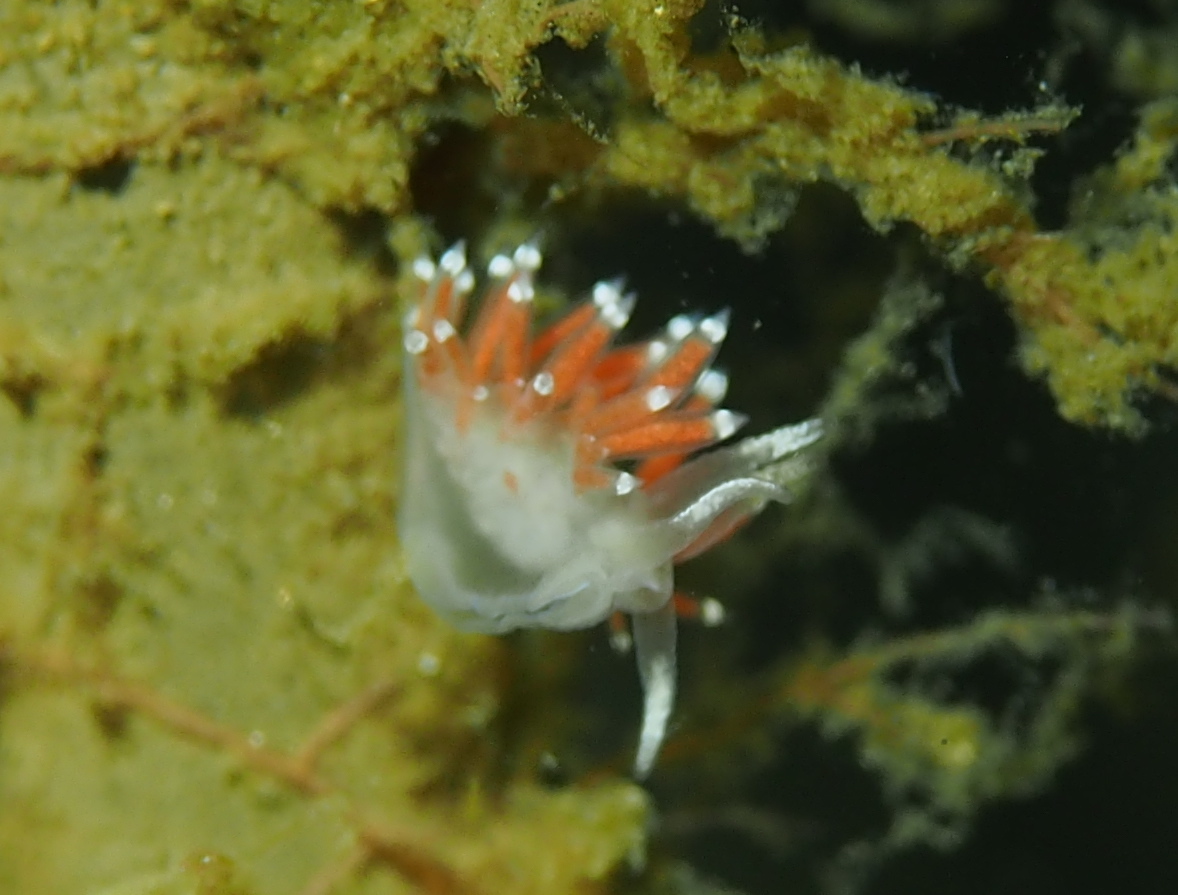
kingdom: Animalia
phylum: Mollusca
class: Gastropoda
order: Nudibranchia
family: Coryphellidae
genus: Coryphella
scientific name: Coryphella gracilis
